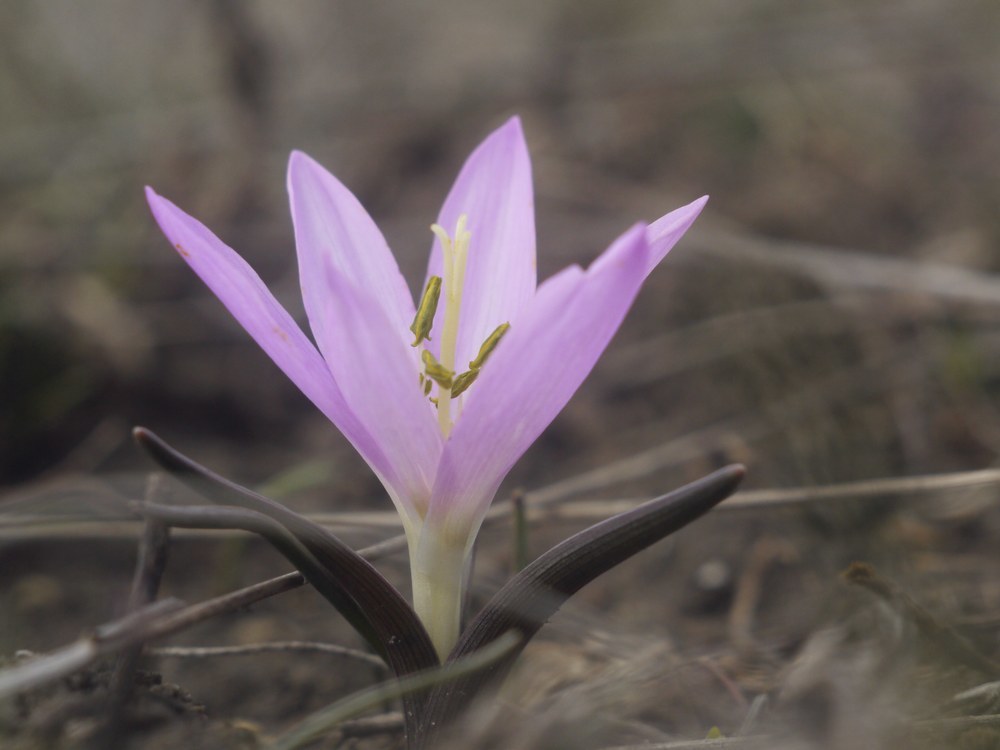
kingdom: Plantae
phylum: Tracheophyta
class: Liliopsida
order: Liliales
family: Colchicaceae
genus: Colchicum
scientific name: Colchicum bulbocodium
